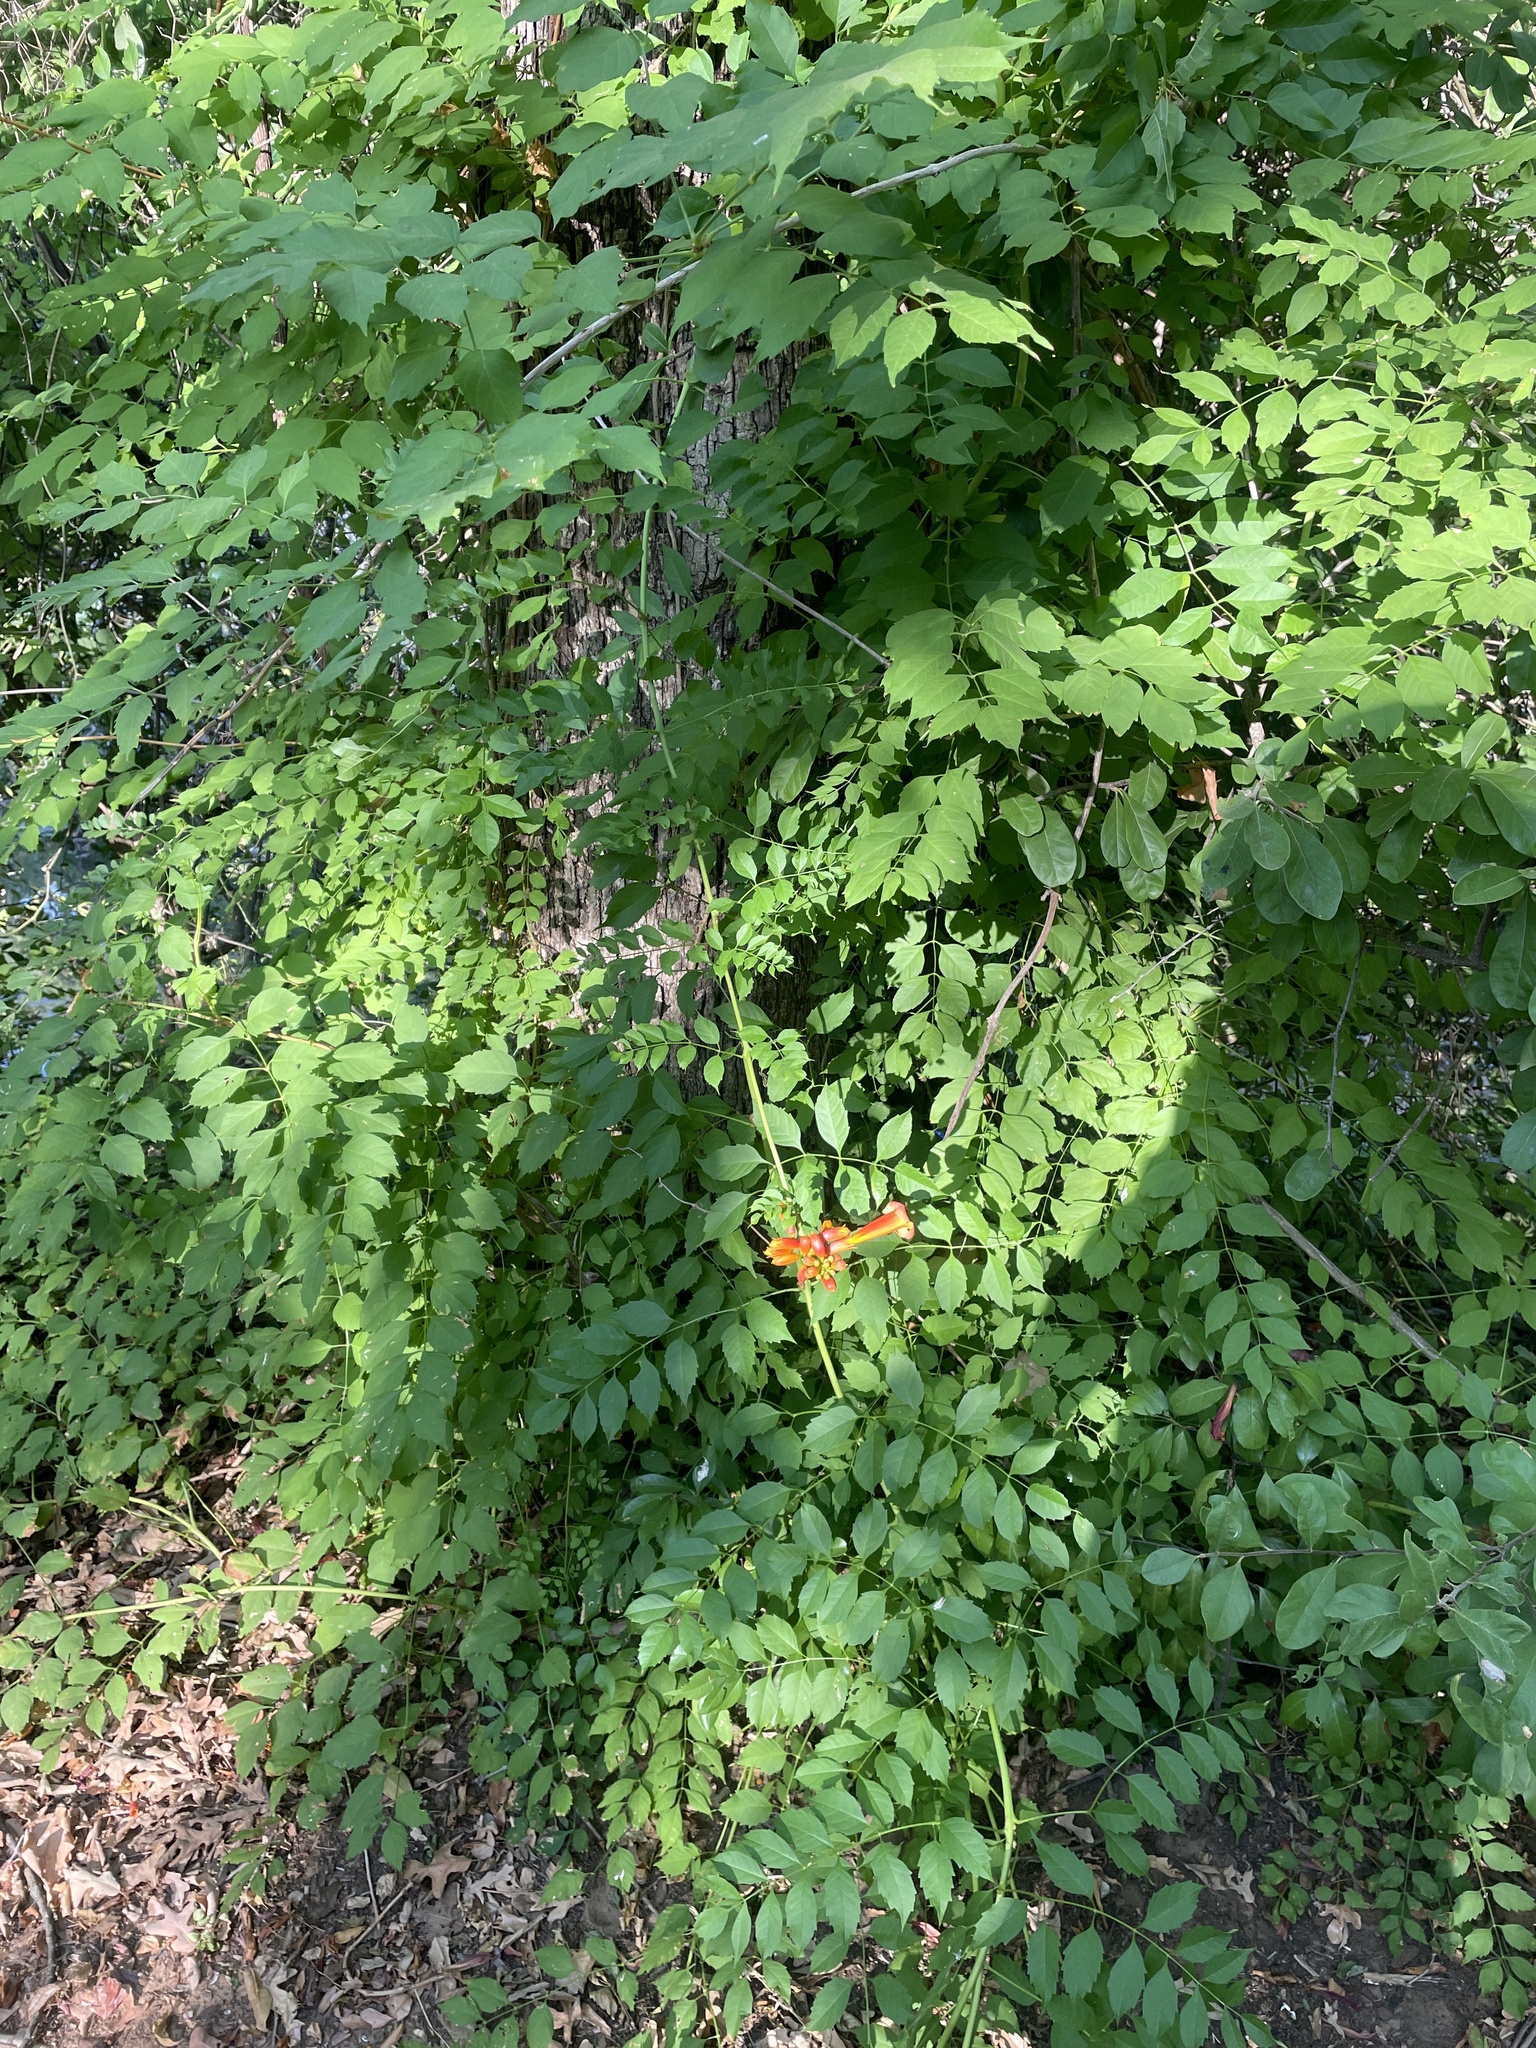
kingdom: Plantae
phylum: Tracheophyta
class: Magnoliopsida
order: Lamiales
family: Bignoniaceae
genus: Campsis
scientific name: Campsis radicans
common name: Trumpet-creeper
